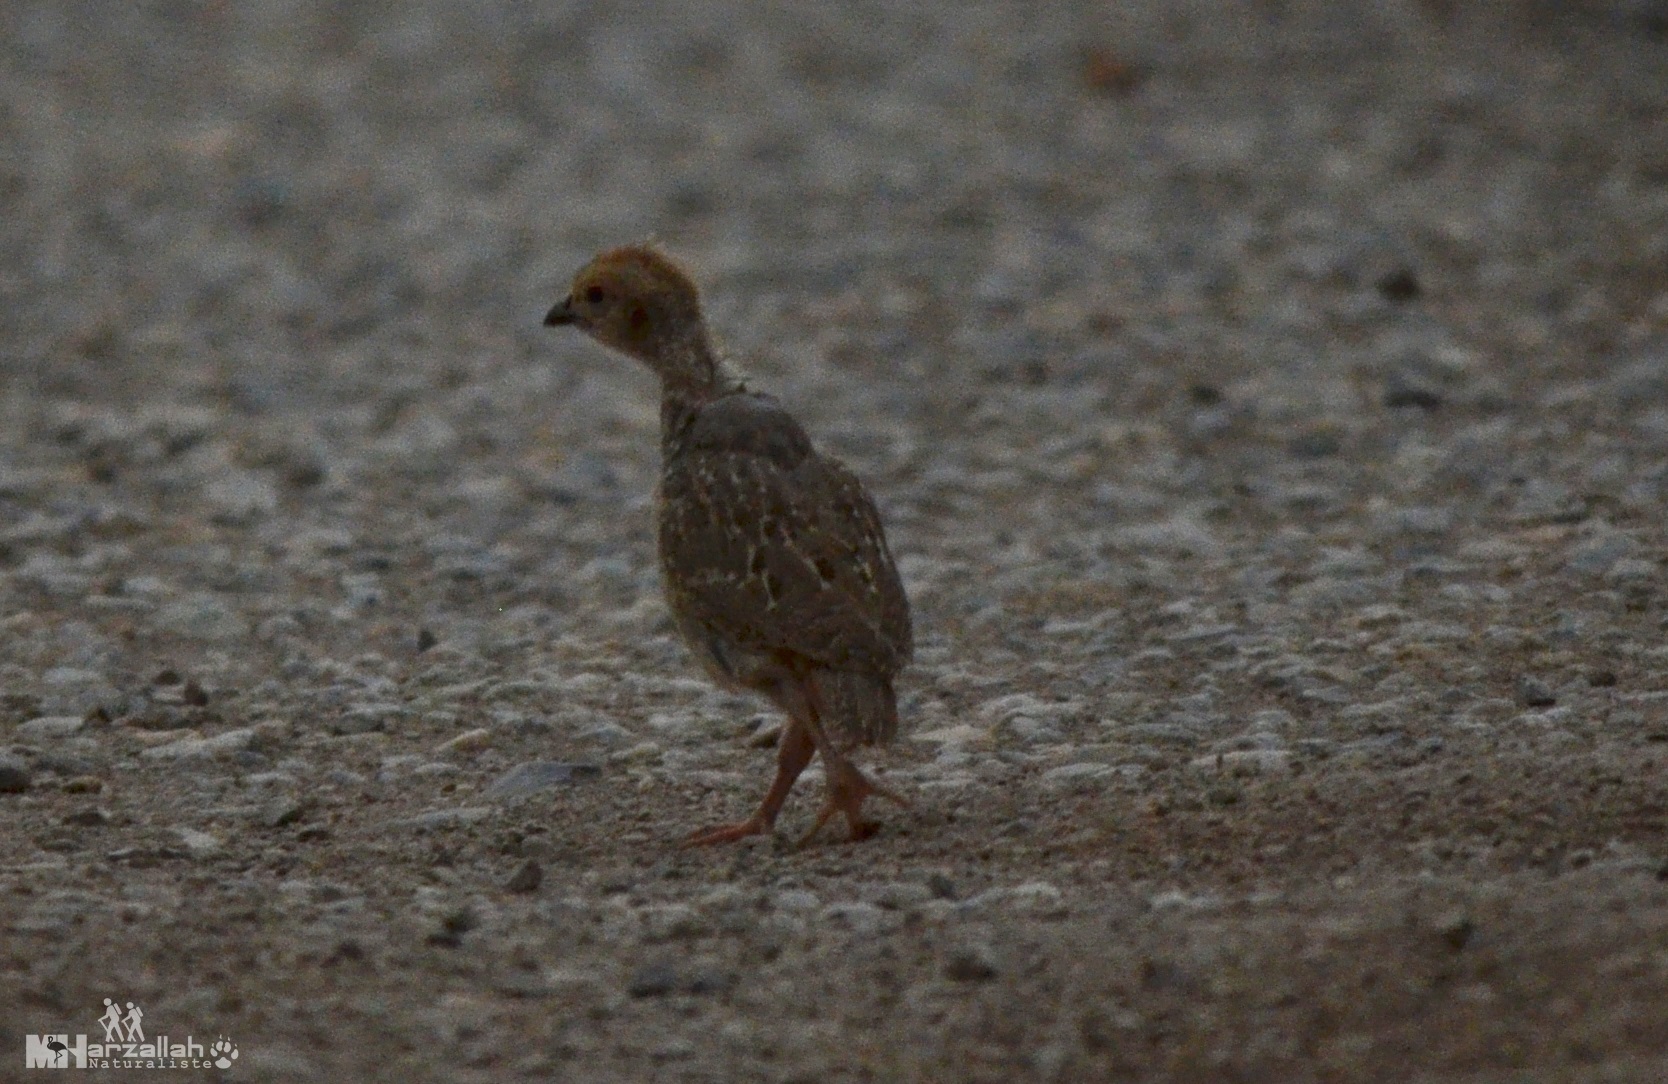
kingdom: Animalia
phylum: Chordata
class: Aves
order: Galliformes
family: Phasianidae
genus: Alectoris
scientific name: Alectoris barbara
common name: Barbary partridge
